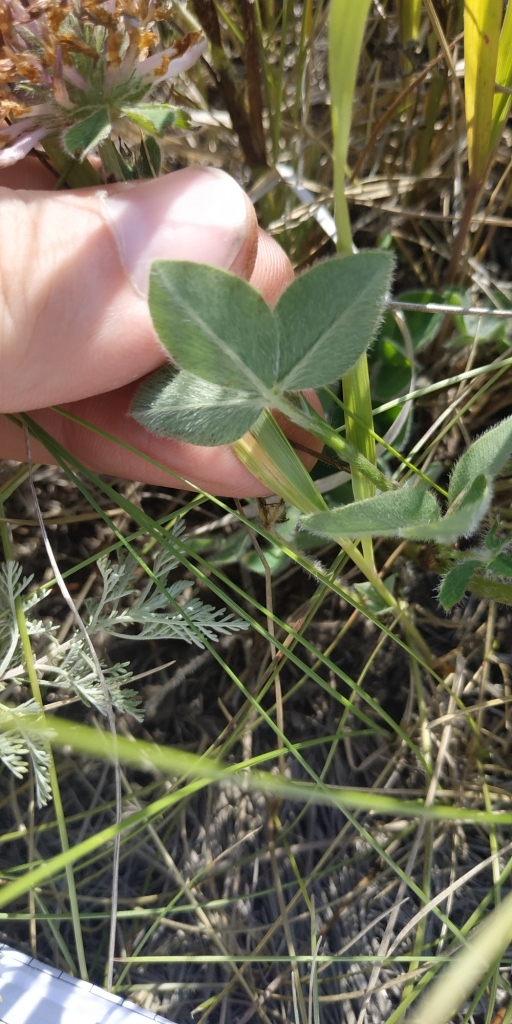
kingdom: Plantae
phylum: Tracheophyta
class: Magnoliopsida
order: Fabales
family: Fabaceae
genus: Trifolium
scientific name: Trifolium pratense
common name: Red clover
